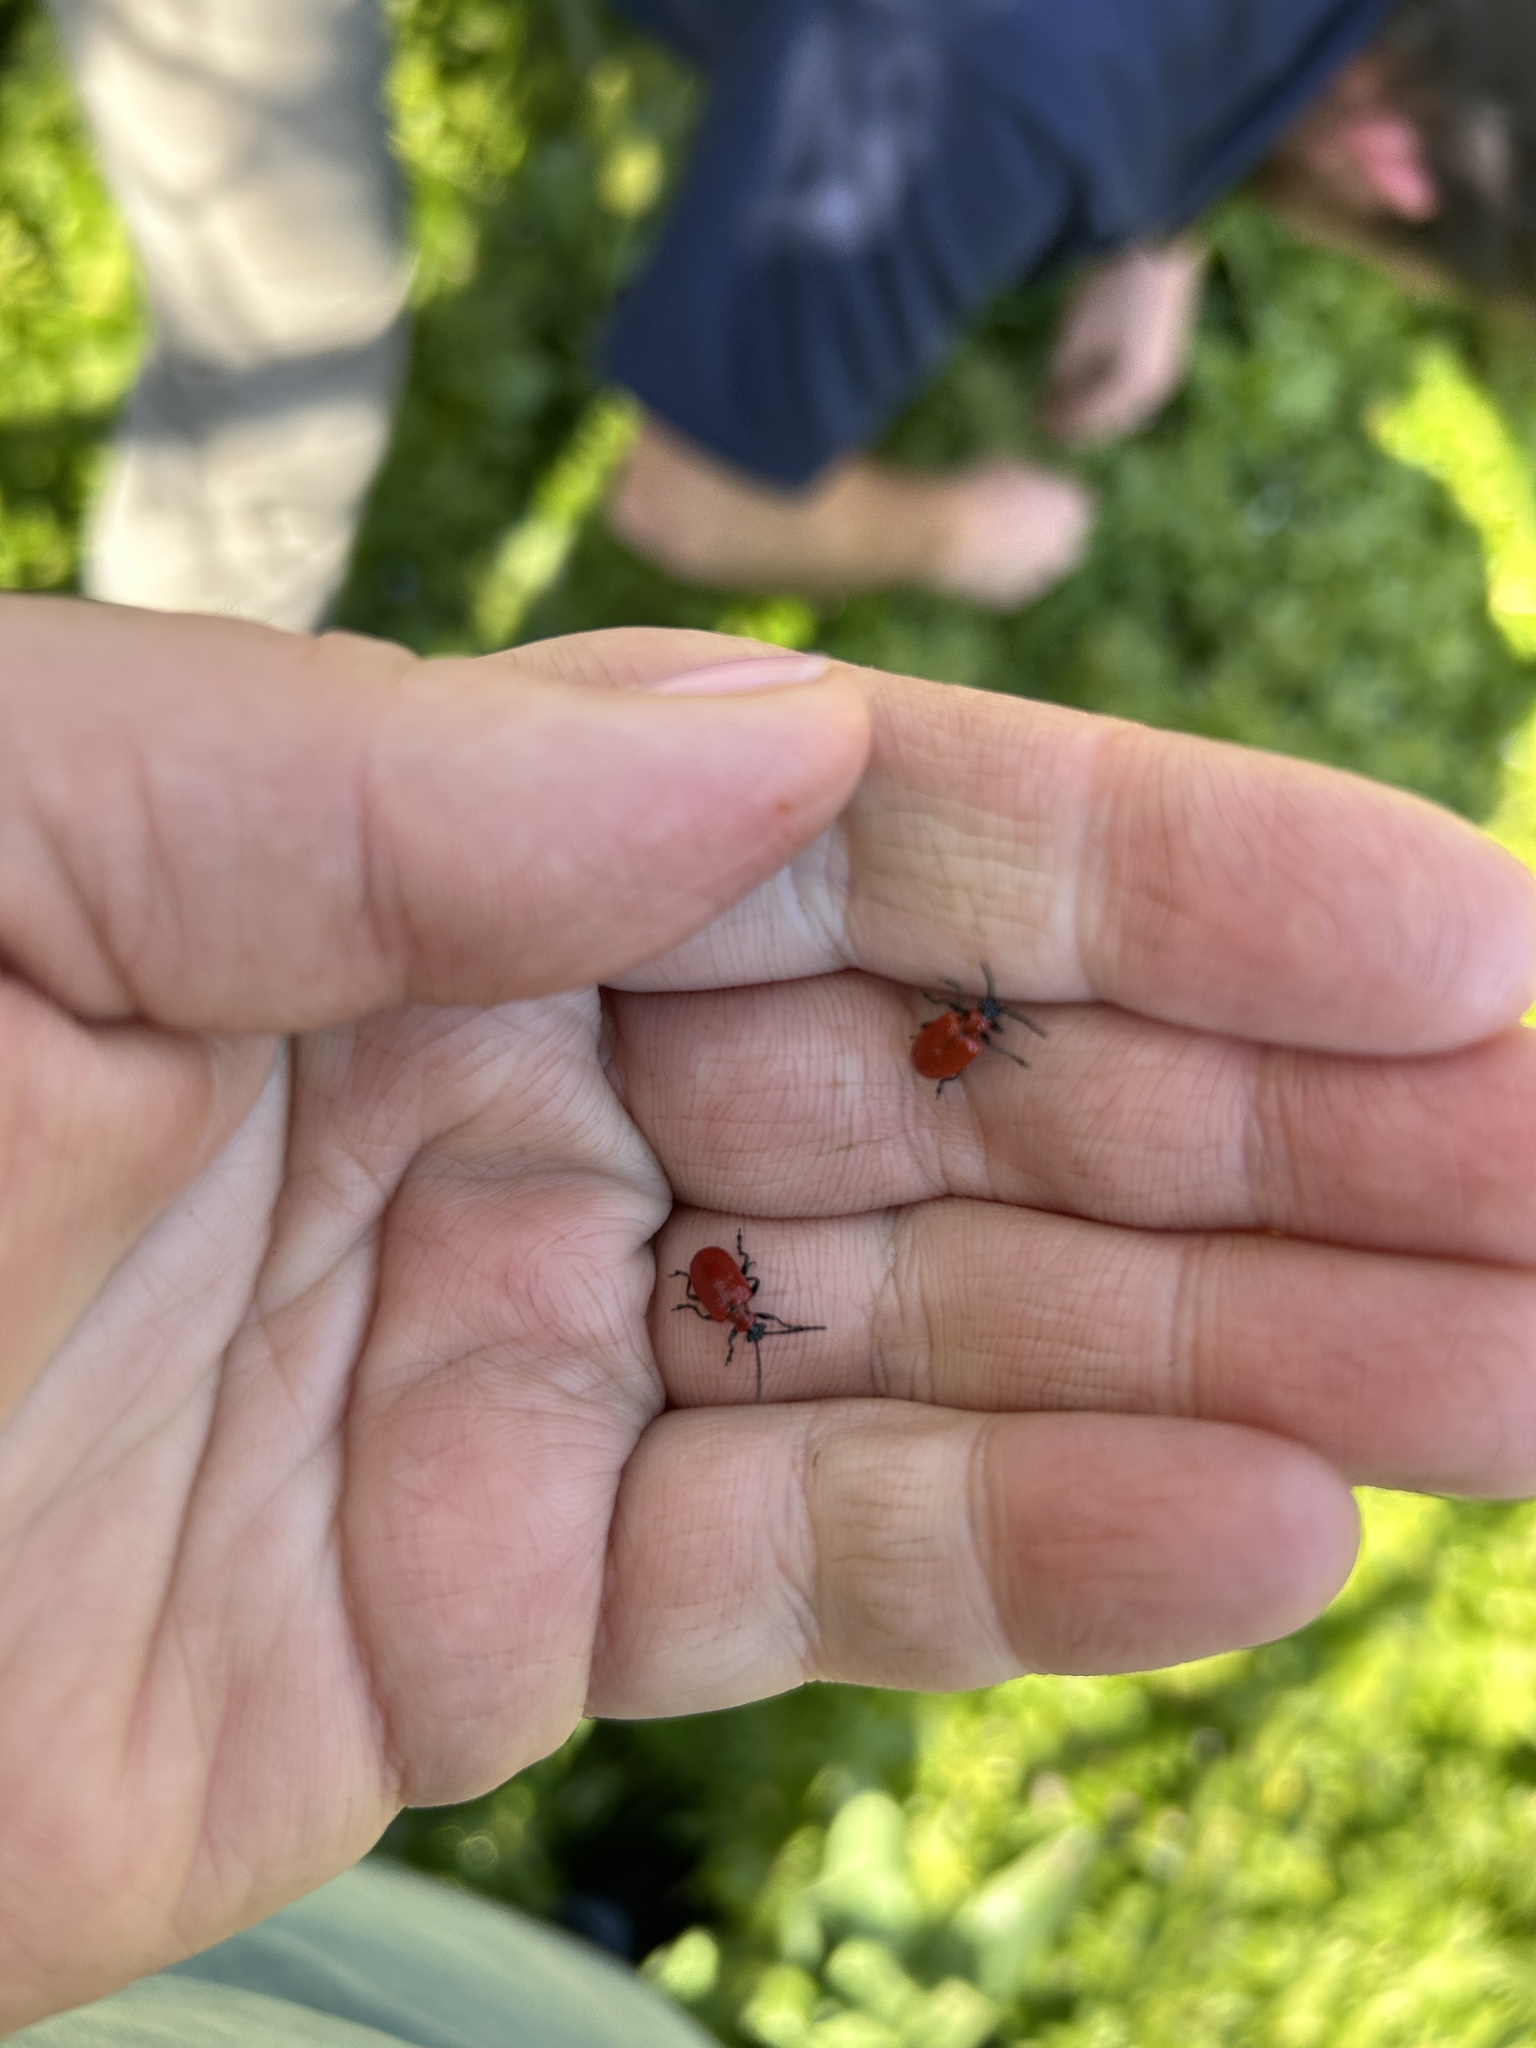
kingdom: Animalia
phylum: Arthropoda
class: Insecta
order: Coleoptera
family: Chrysomelidae
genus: Lilioceris
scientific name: Lilioceris lilii
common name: Lily beetle
